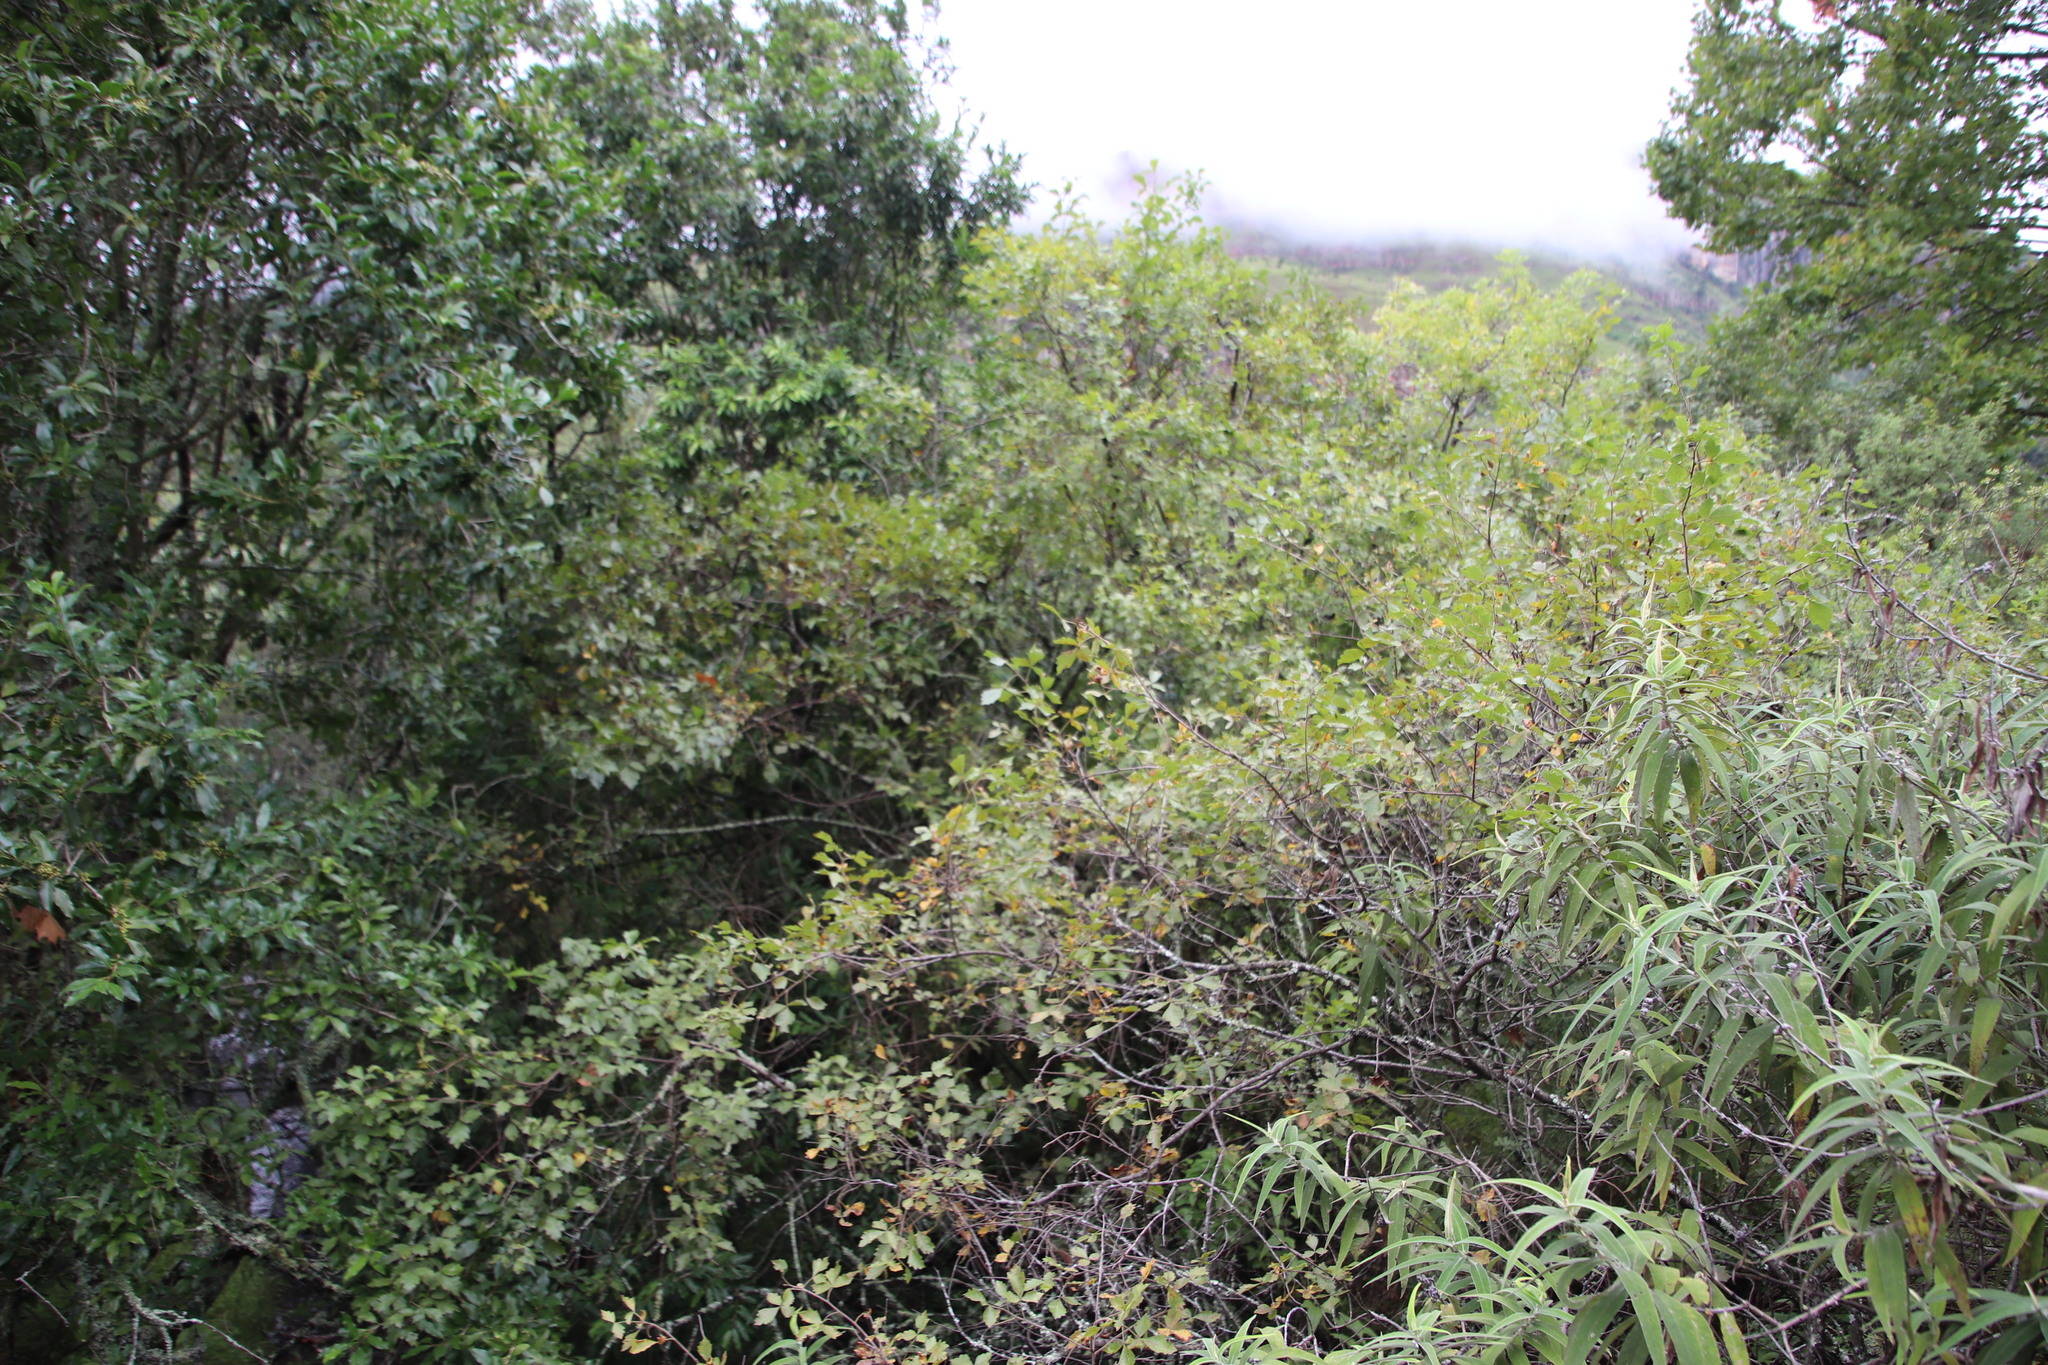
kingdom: Plantae
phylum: Tracheophyta
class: Magnoliopsida
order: Sapindales
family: Anacardiaceae
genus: Searsia
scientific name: Searsia dentata
